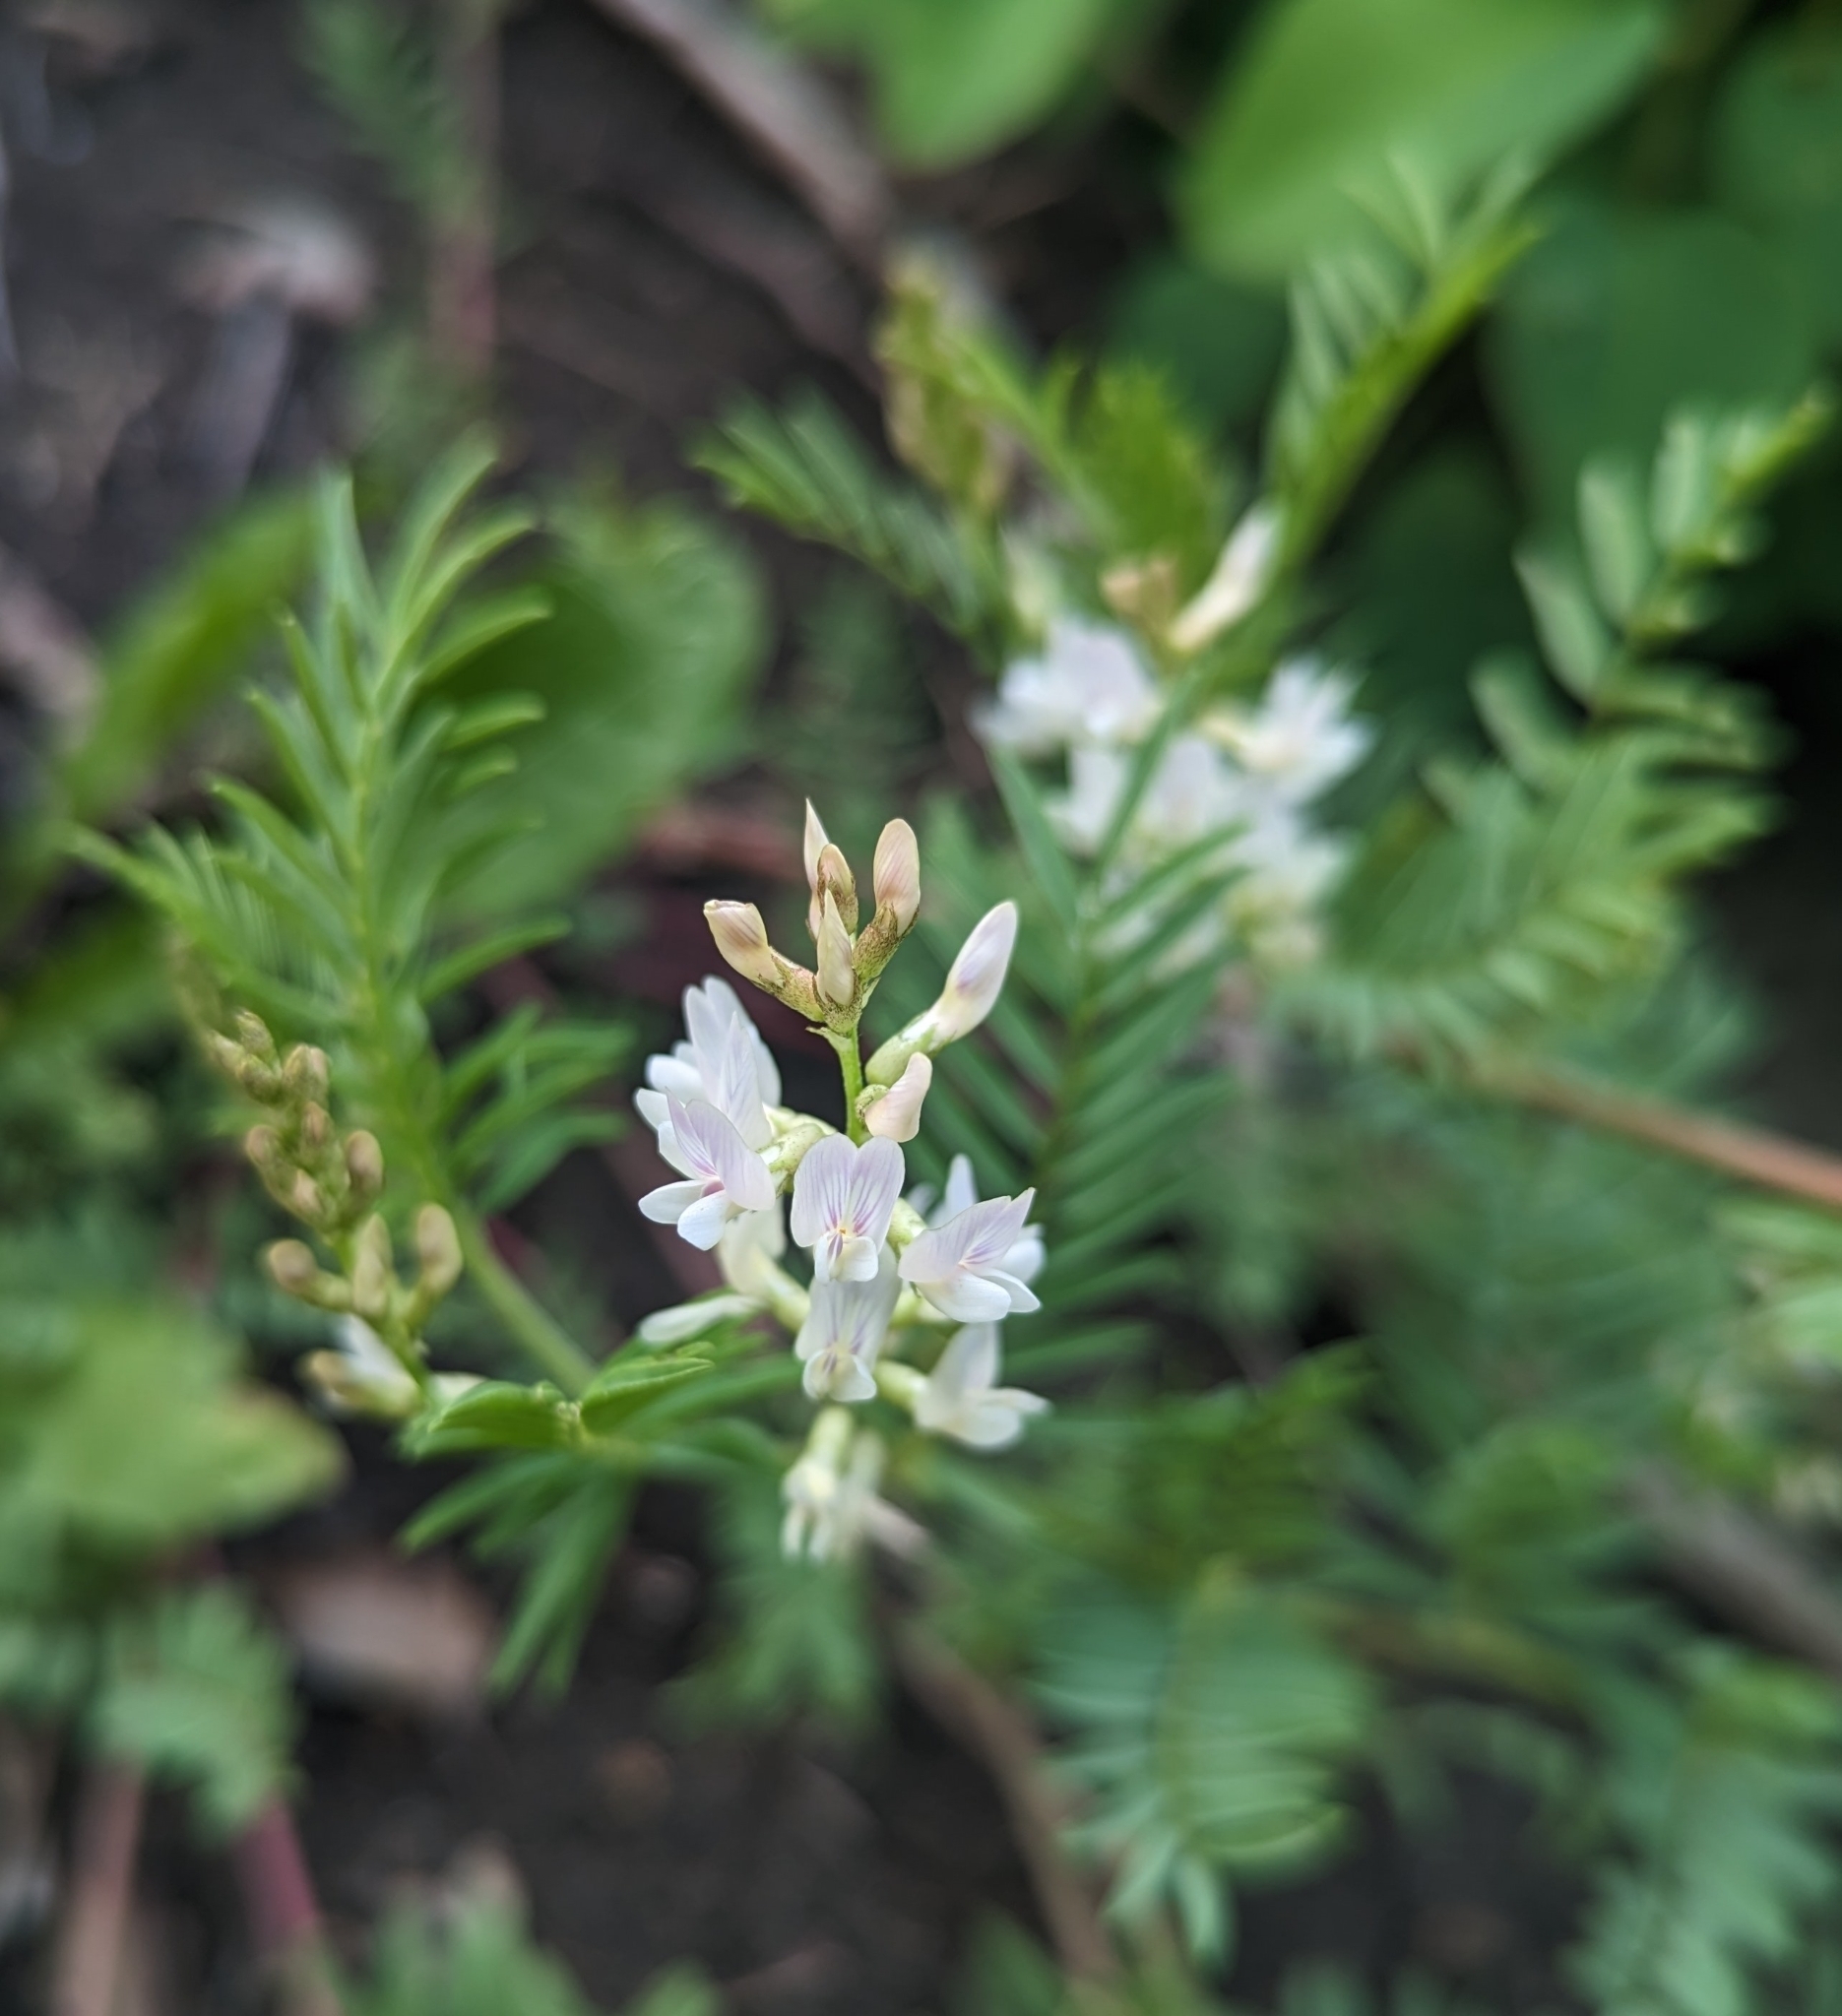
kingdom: Plantae
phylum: Tracheophyta
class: Magnoliopsida
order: Fabales
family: Fabaceae
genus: Astragalus
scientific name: Astragalus tenellus
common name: Pulse milk-vetch
